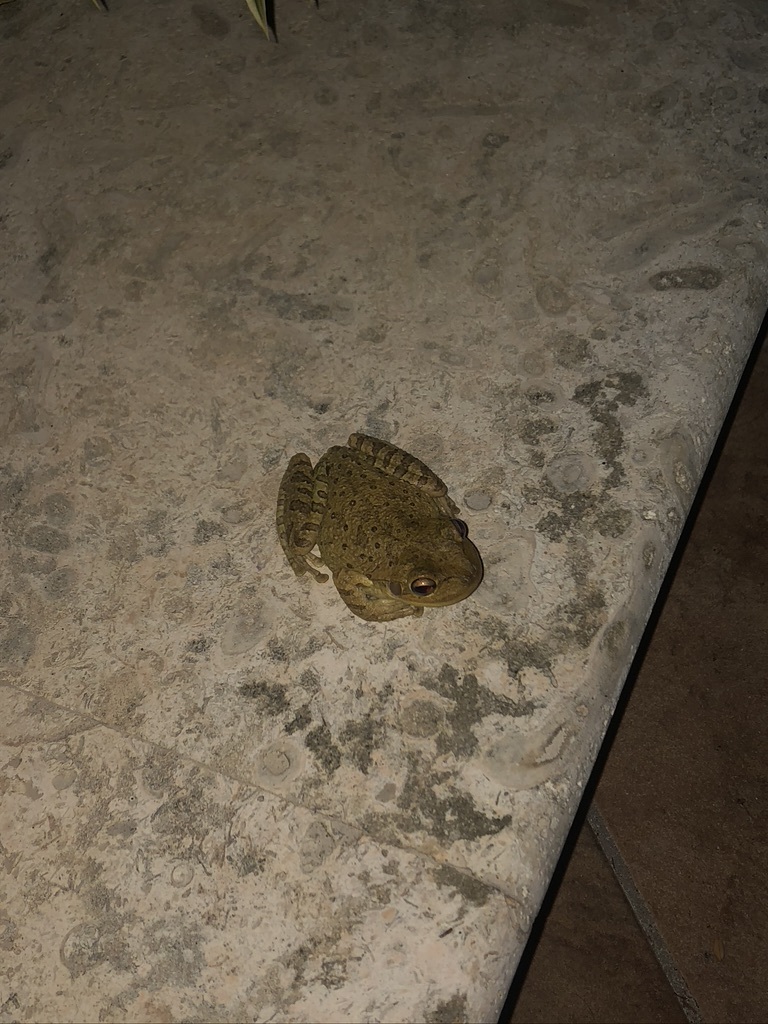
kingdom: Animalia
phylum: Chordata
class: Amphibia
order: Anura
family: Hylidae
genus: Osteopilus
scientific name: Osteopilus septentrionalis
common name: Cuban treefrog
